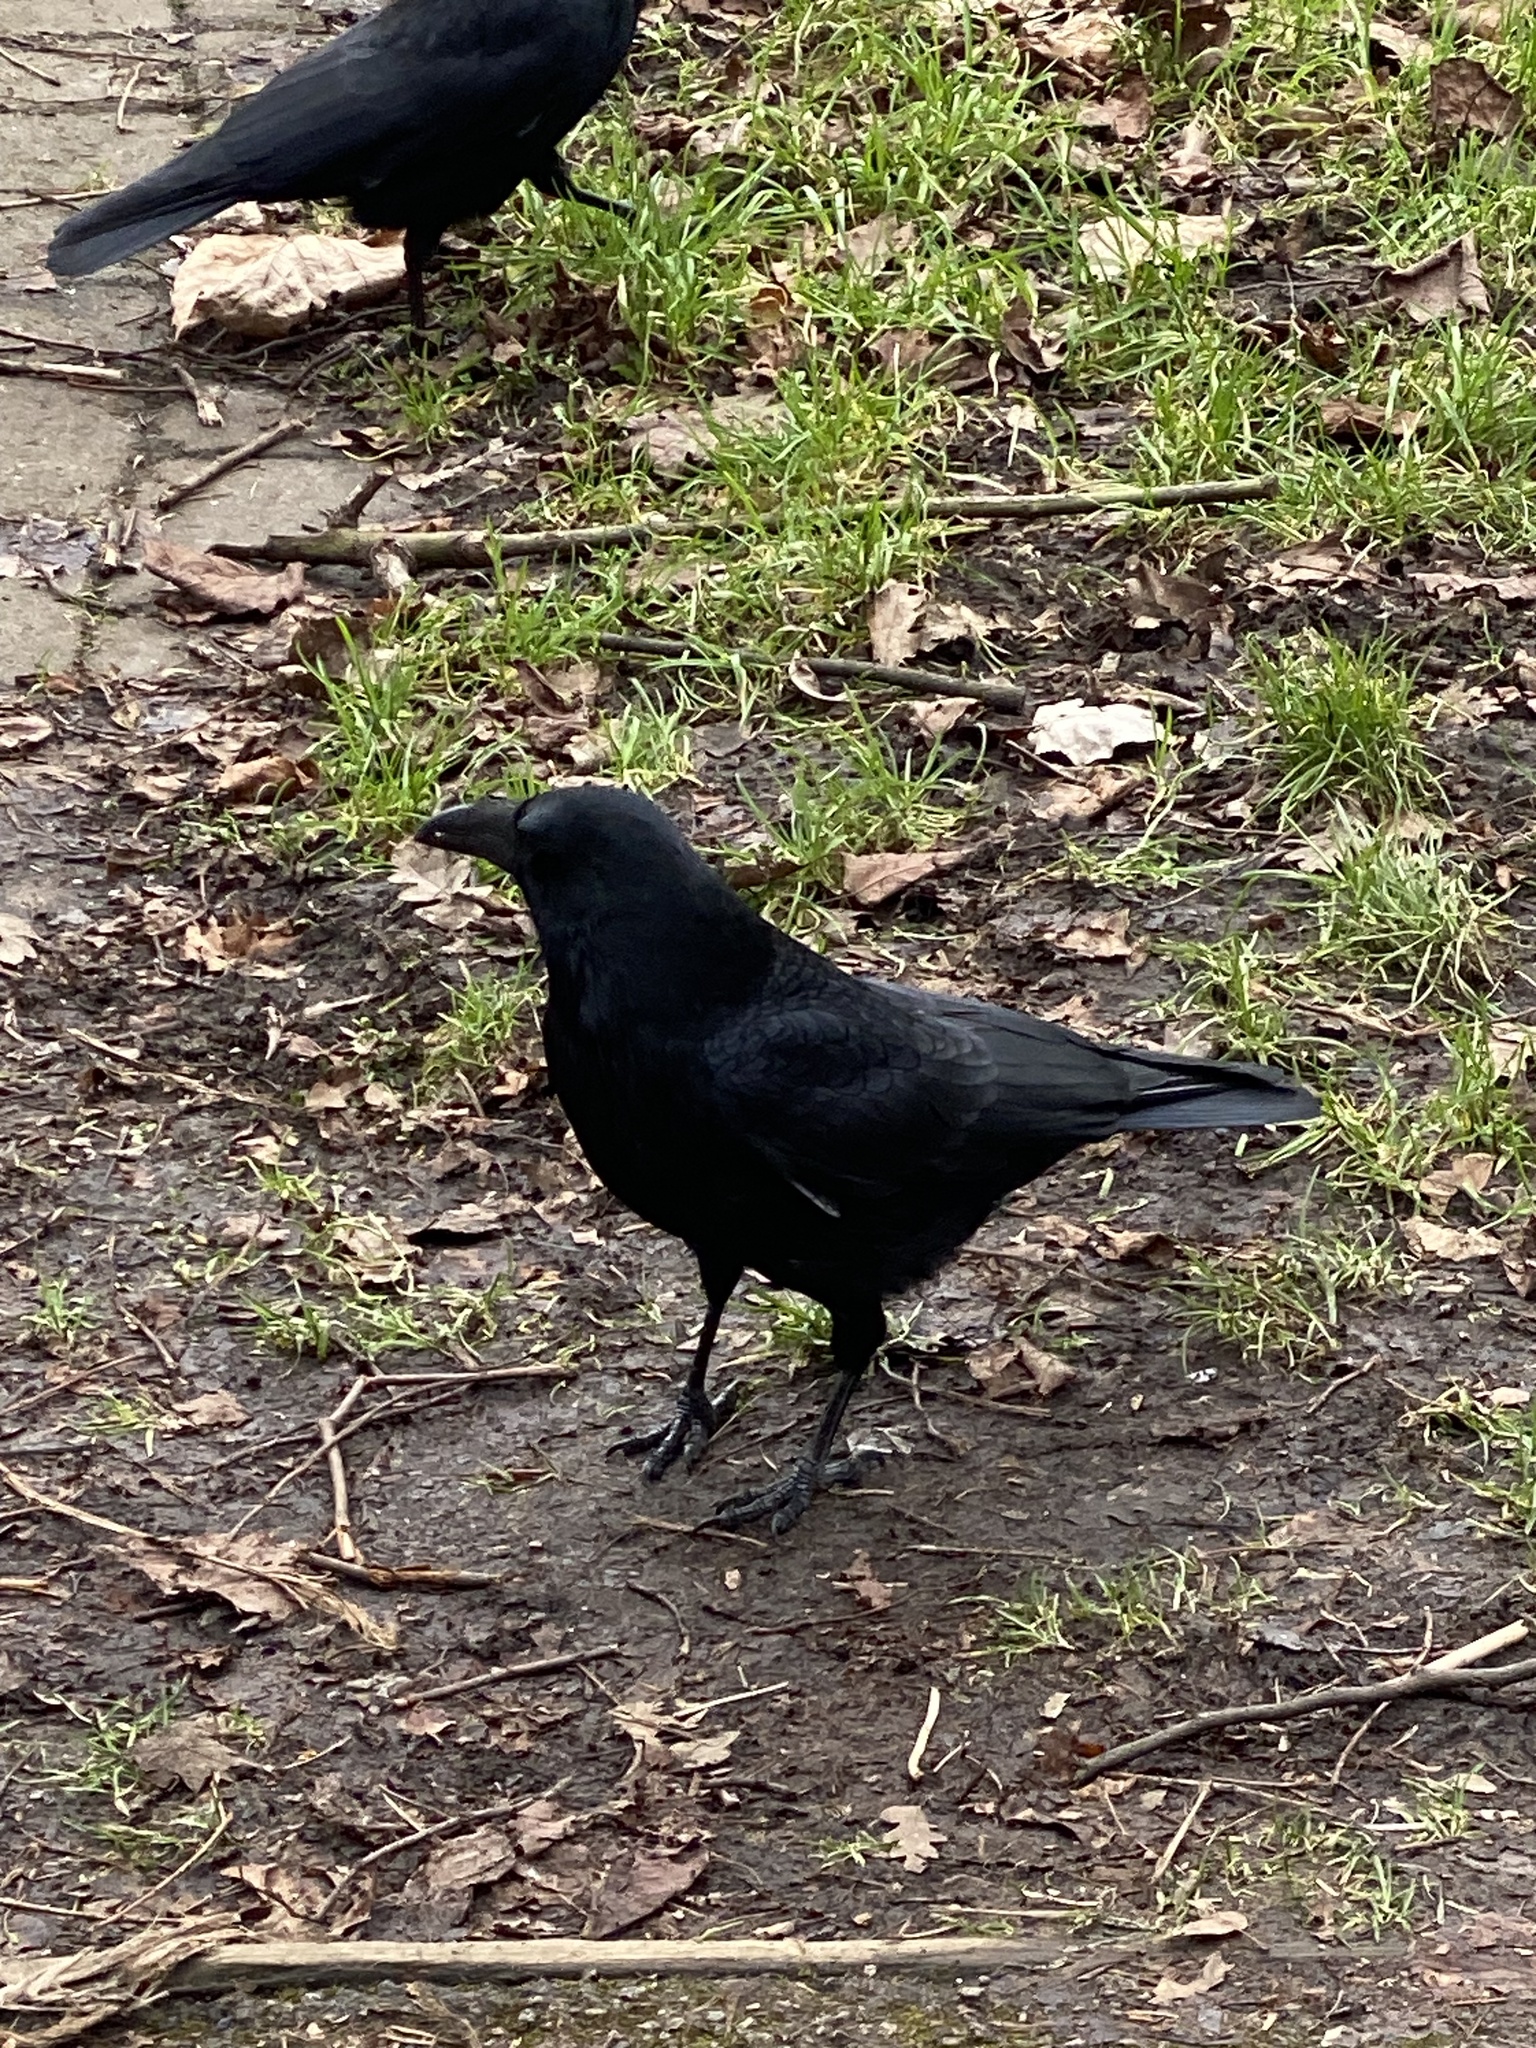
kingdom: Animalia
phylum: Chordata
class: Aves
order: Passeriformes
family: Corvidae
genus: Corvus
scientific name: Corvus corone
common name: Carrion crow
